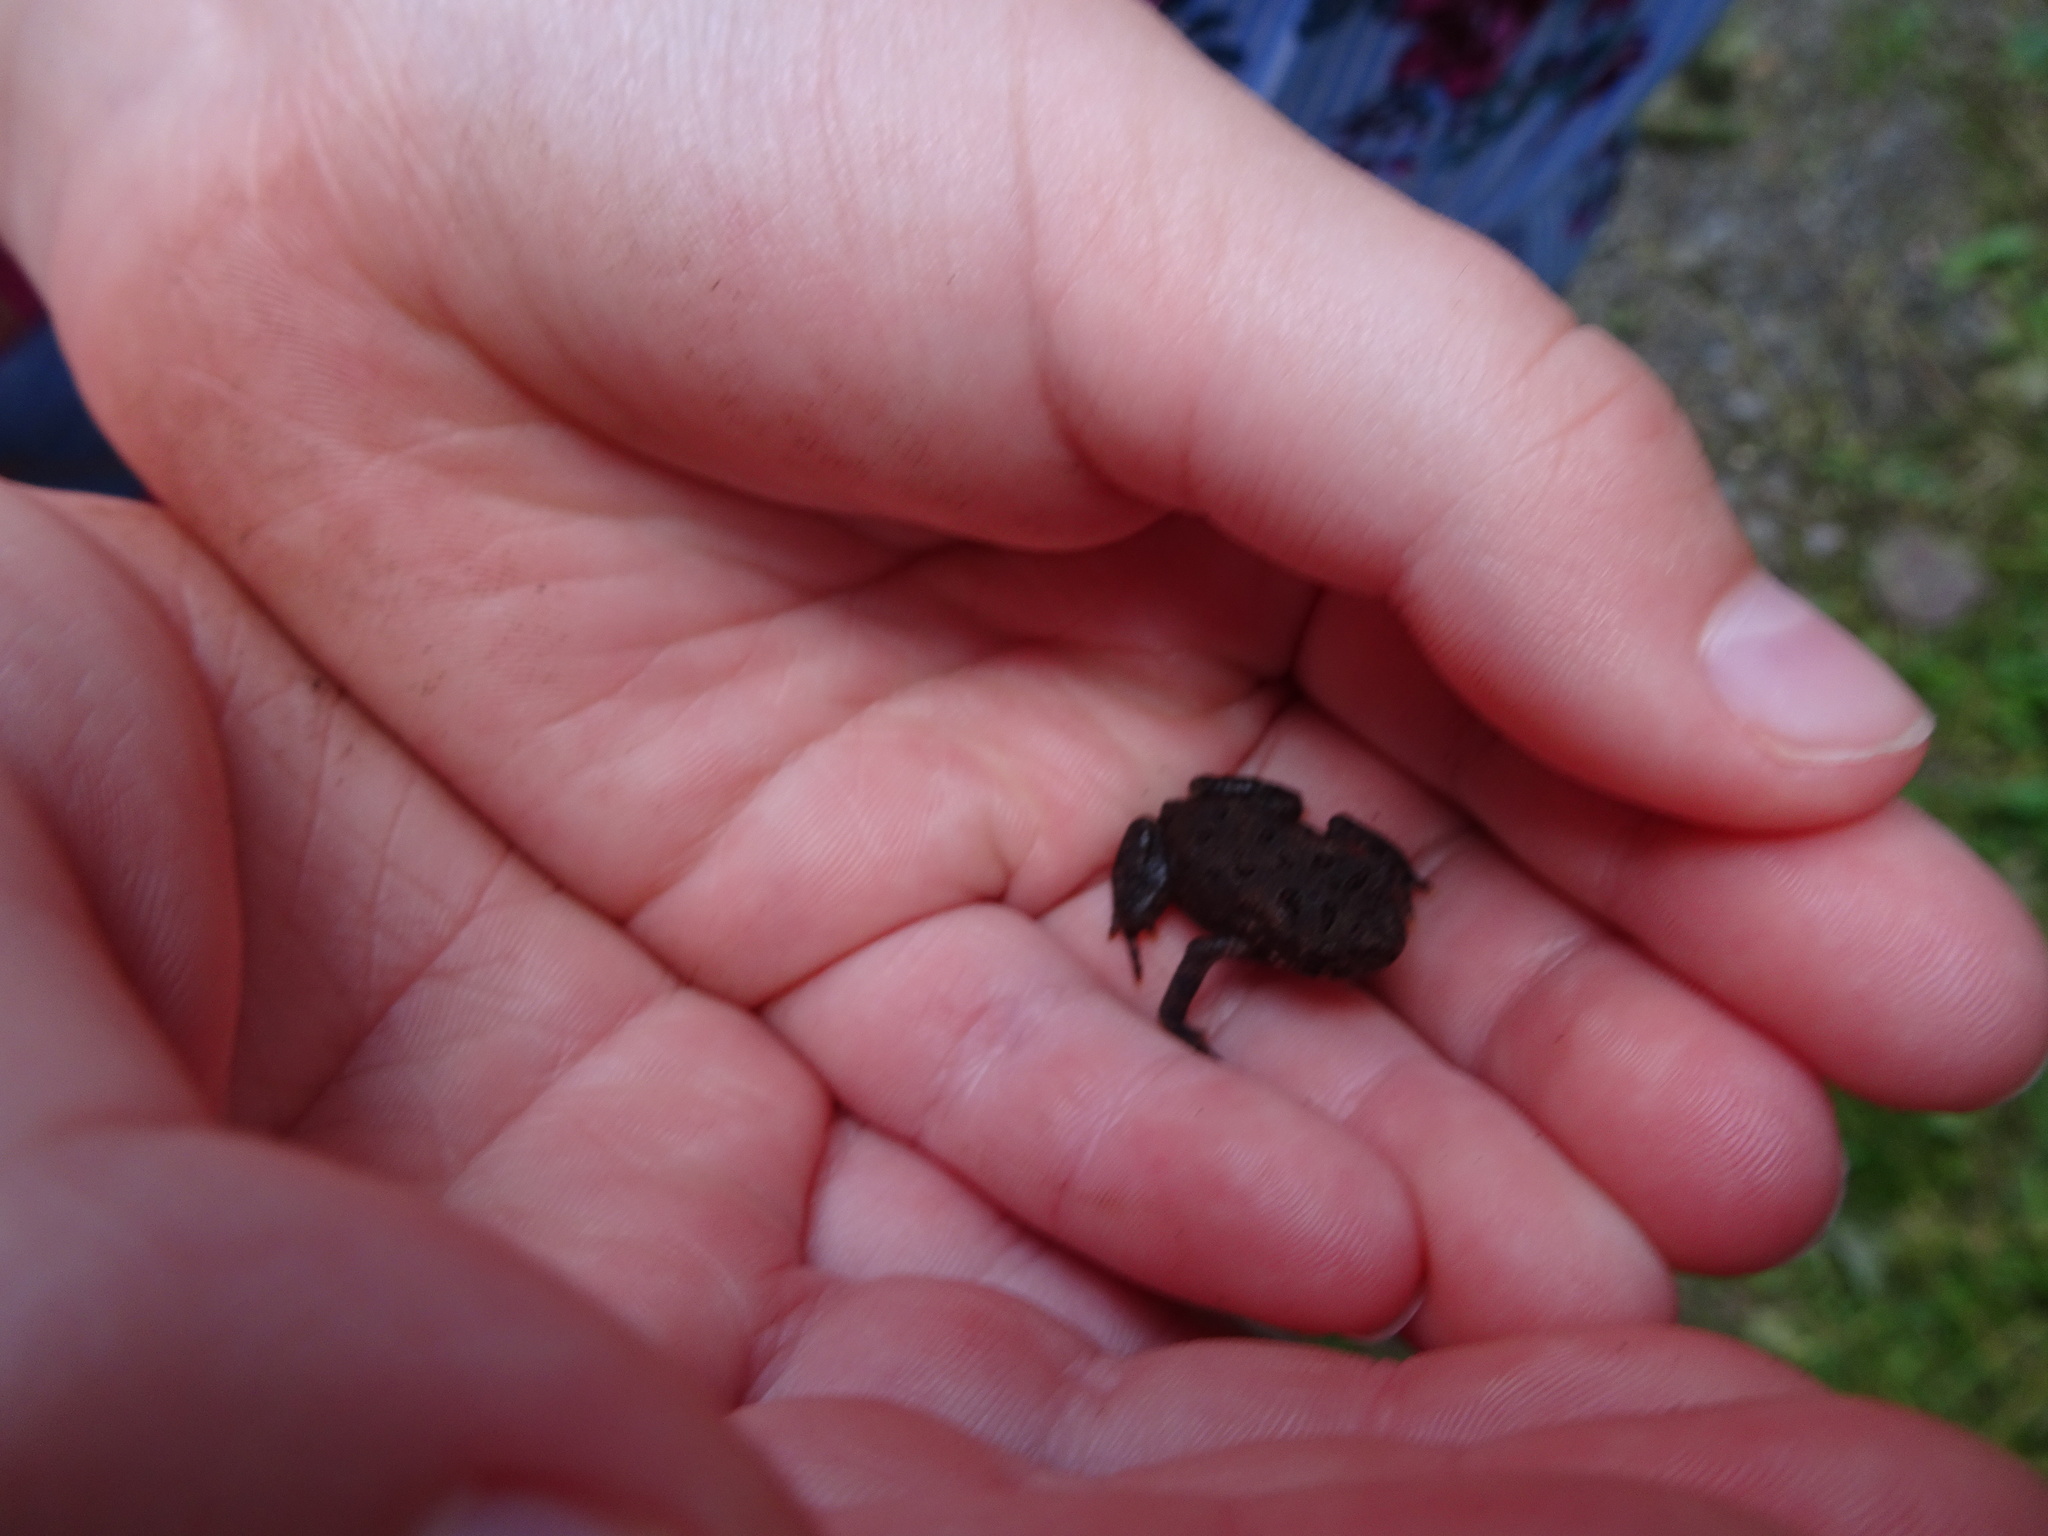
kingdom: Animalia
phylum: Chordata
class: Amphibia
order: Anura
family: Bufonidae
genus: Anaxyrus
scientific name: Anaxyrus americanus
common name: American toad
